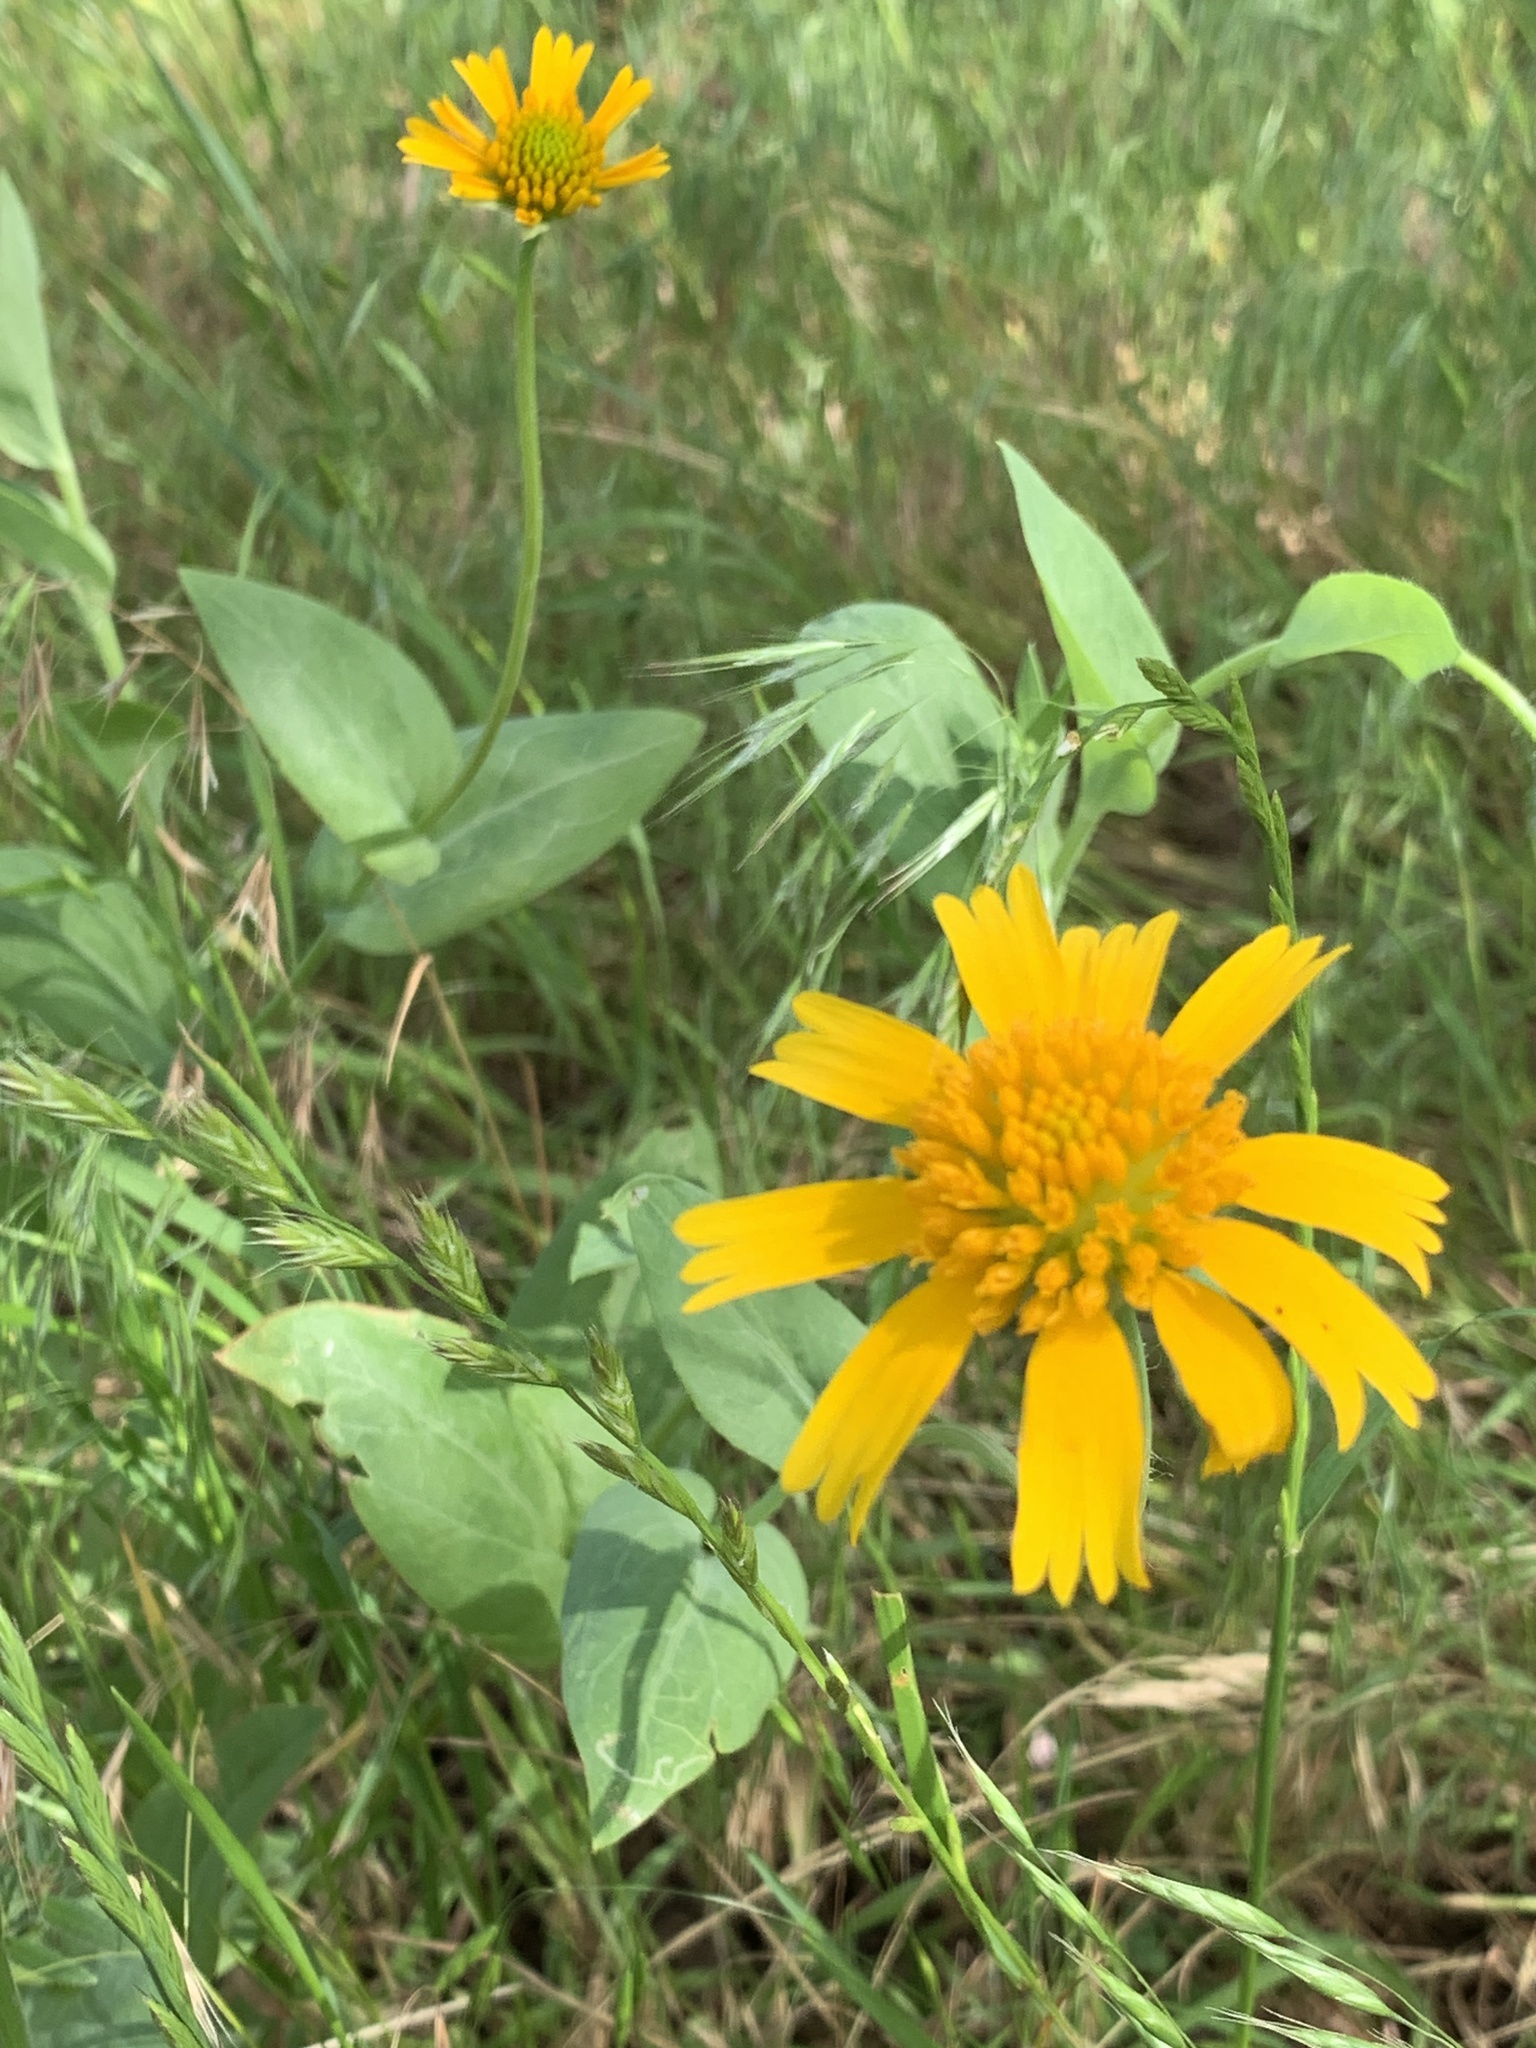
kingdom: Plantae
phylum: Tracheophyta
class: Magnoliopsida
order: Asterales
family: Asteraceae
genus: Amblyolepis
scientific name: Amblyolepis setigera
